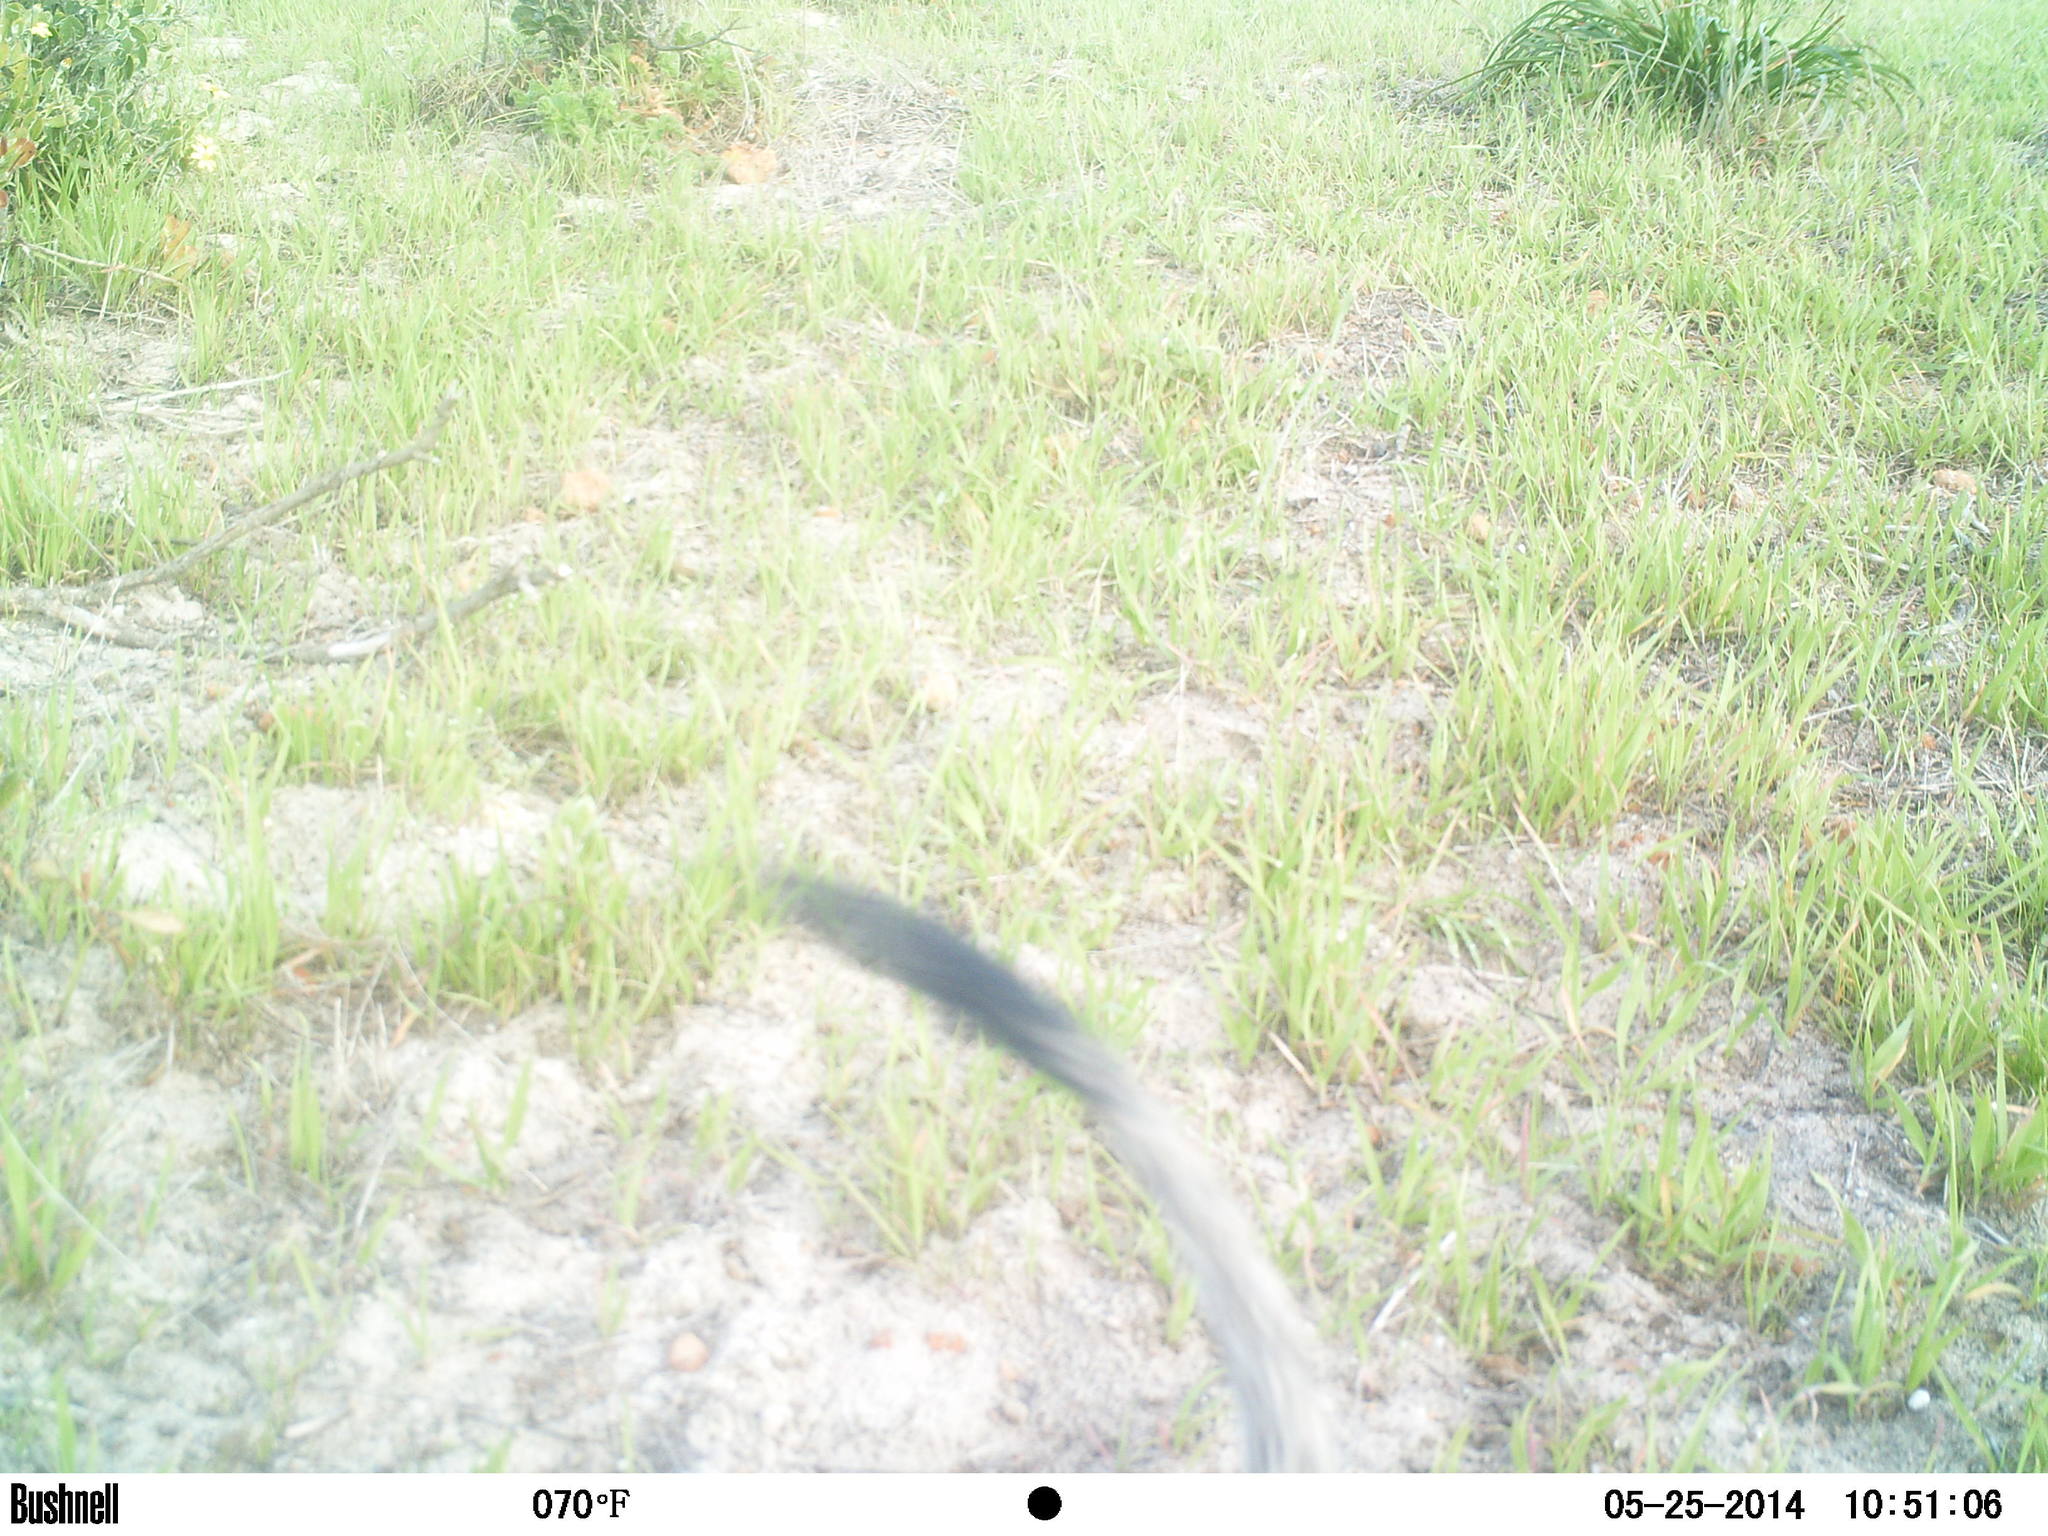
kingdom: Animalia
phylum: Chordata
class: Mammalia
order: Carnivora
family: Herpestidae
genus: Herpestes
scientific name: Herpestes ichneumon
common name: Egyptian mongoose
